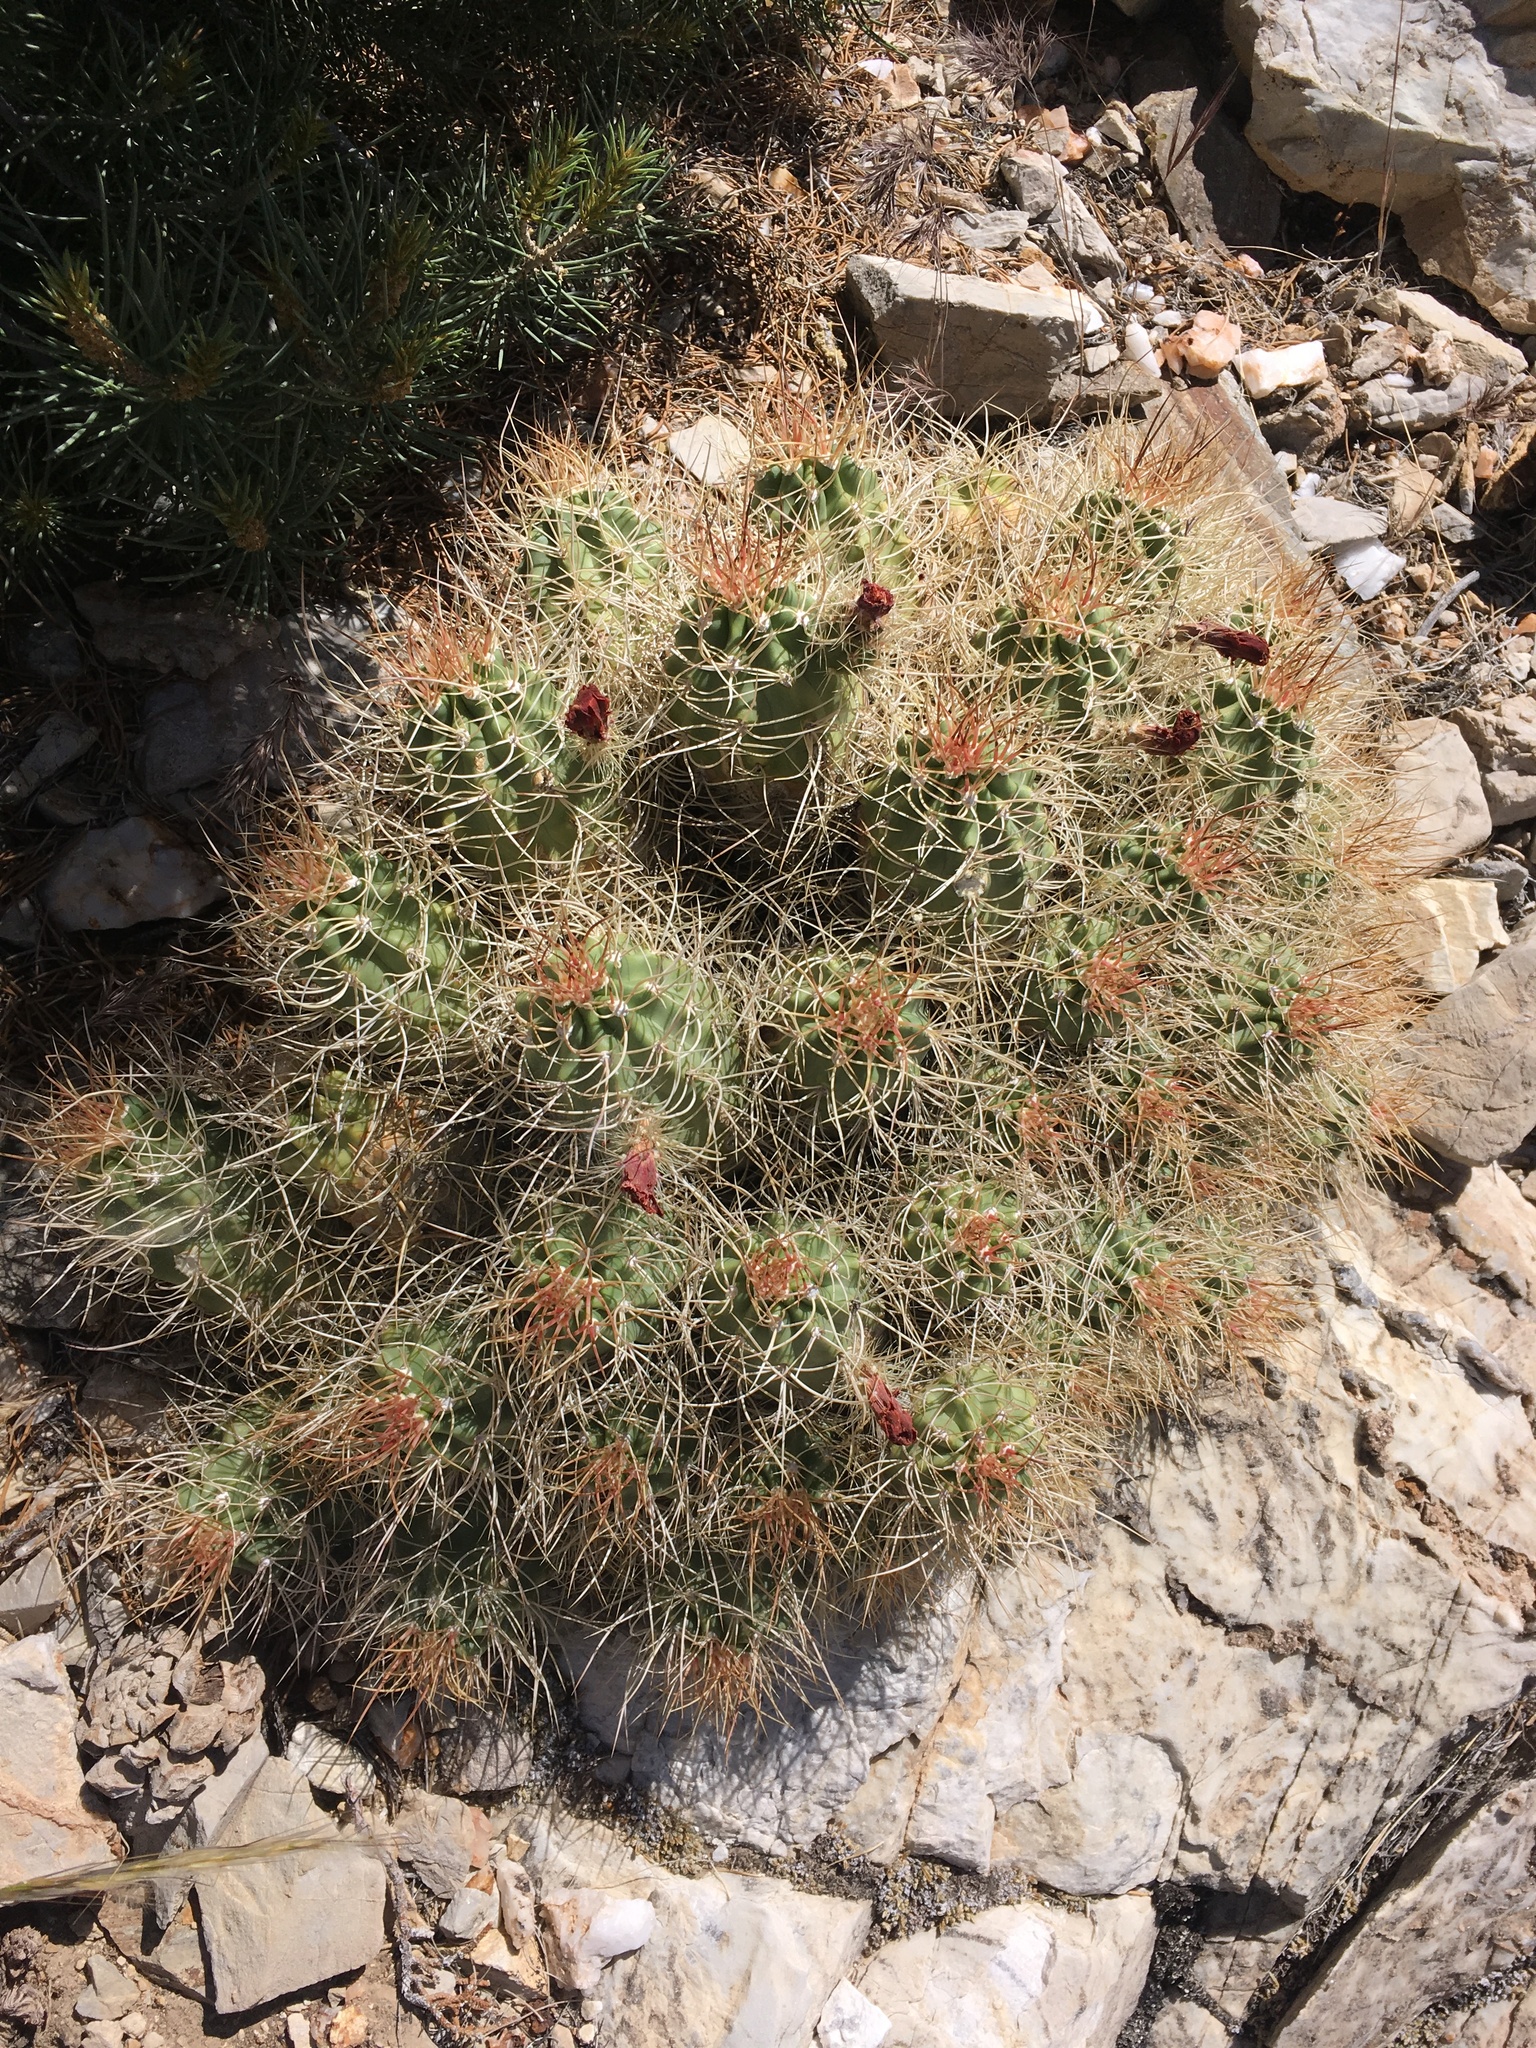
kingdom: Plantae
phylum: Tracheophyta
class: Magnoliopsida
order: Caryophyllales
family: Cactaceae
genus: Echinocereus
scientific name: Echinocereus triglochidiatus
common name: Claretcup hedgehog
